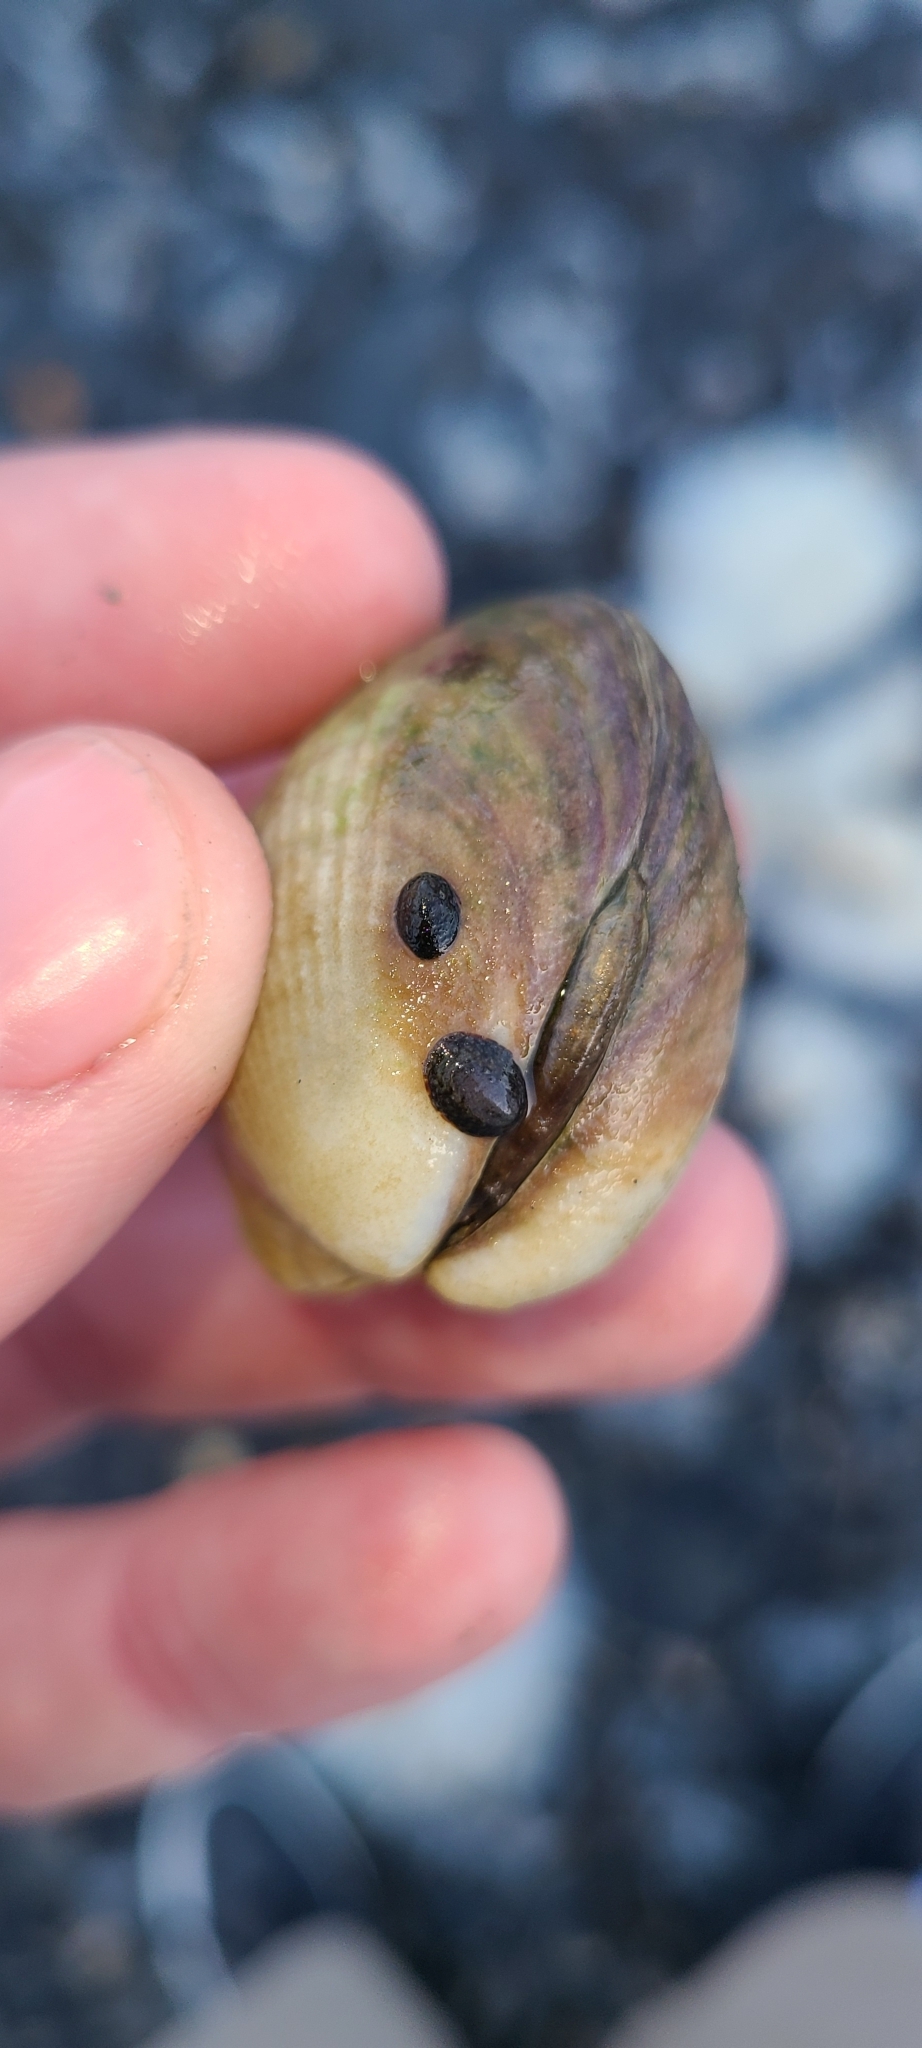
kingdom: Animalia
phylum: Mollusca
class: Gastropoda
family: Lottiidae
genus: Notoacmea
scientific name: Notoacmea
